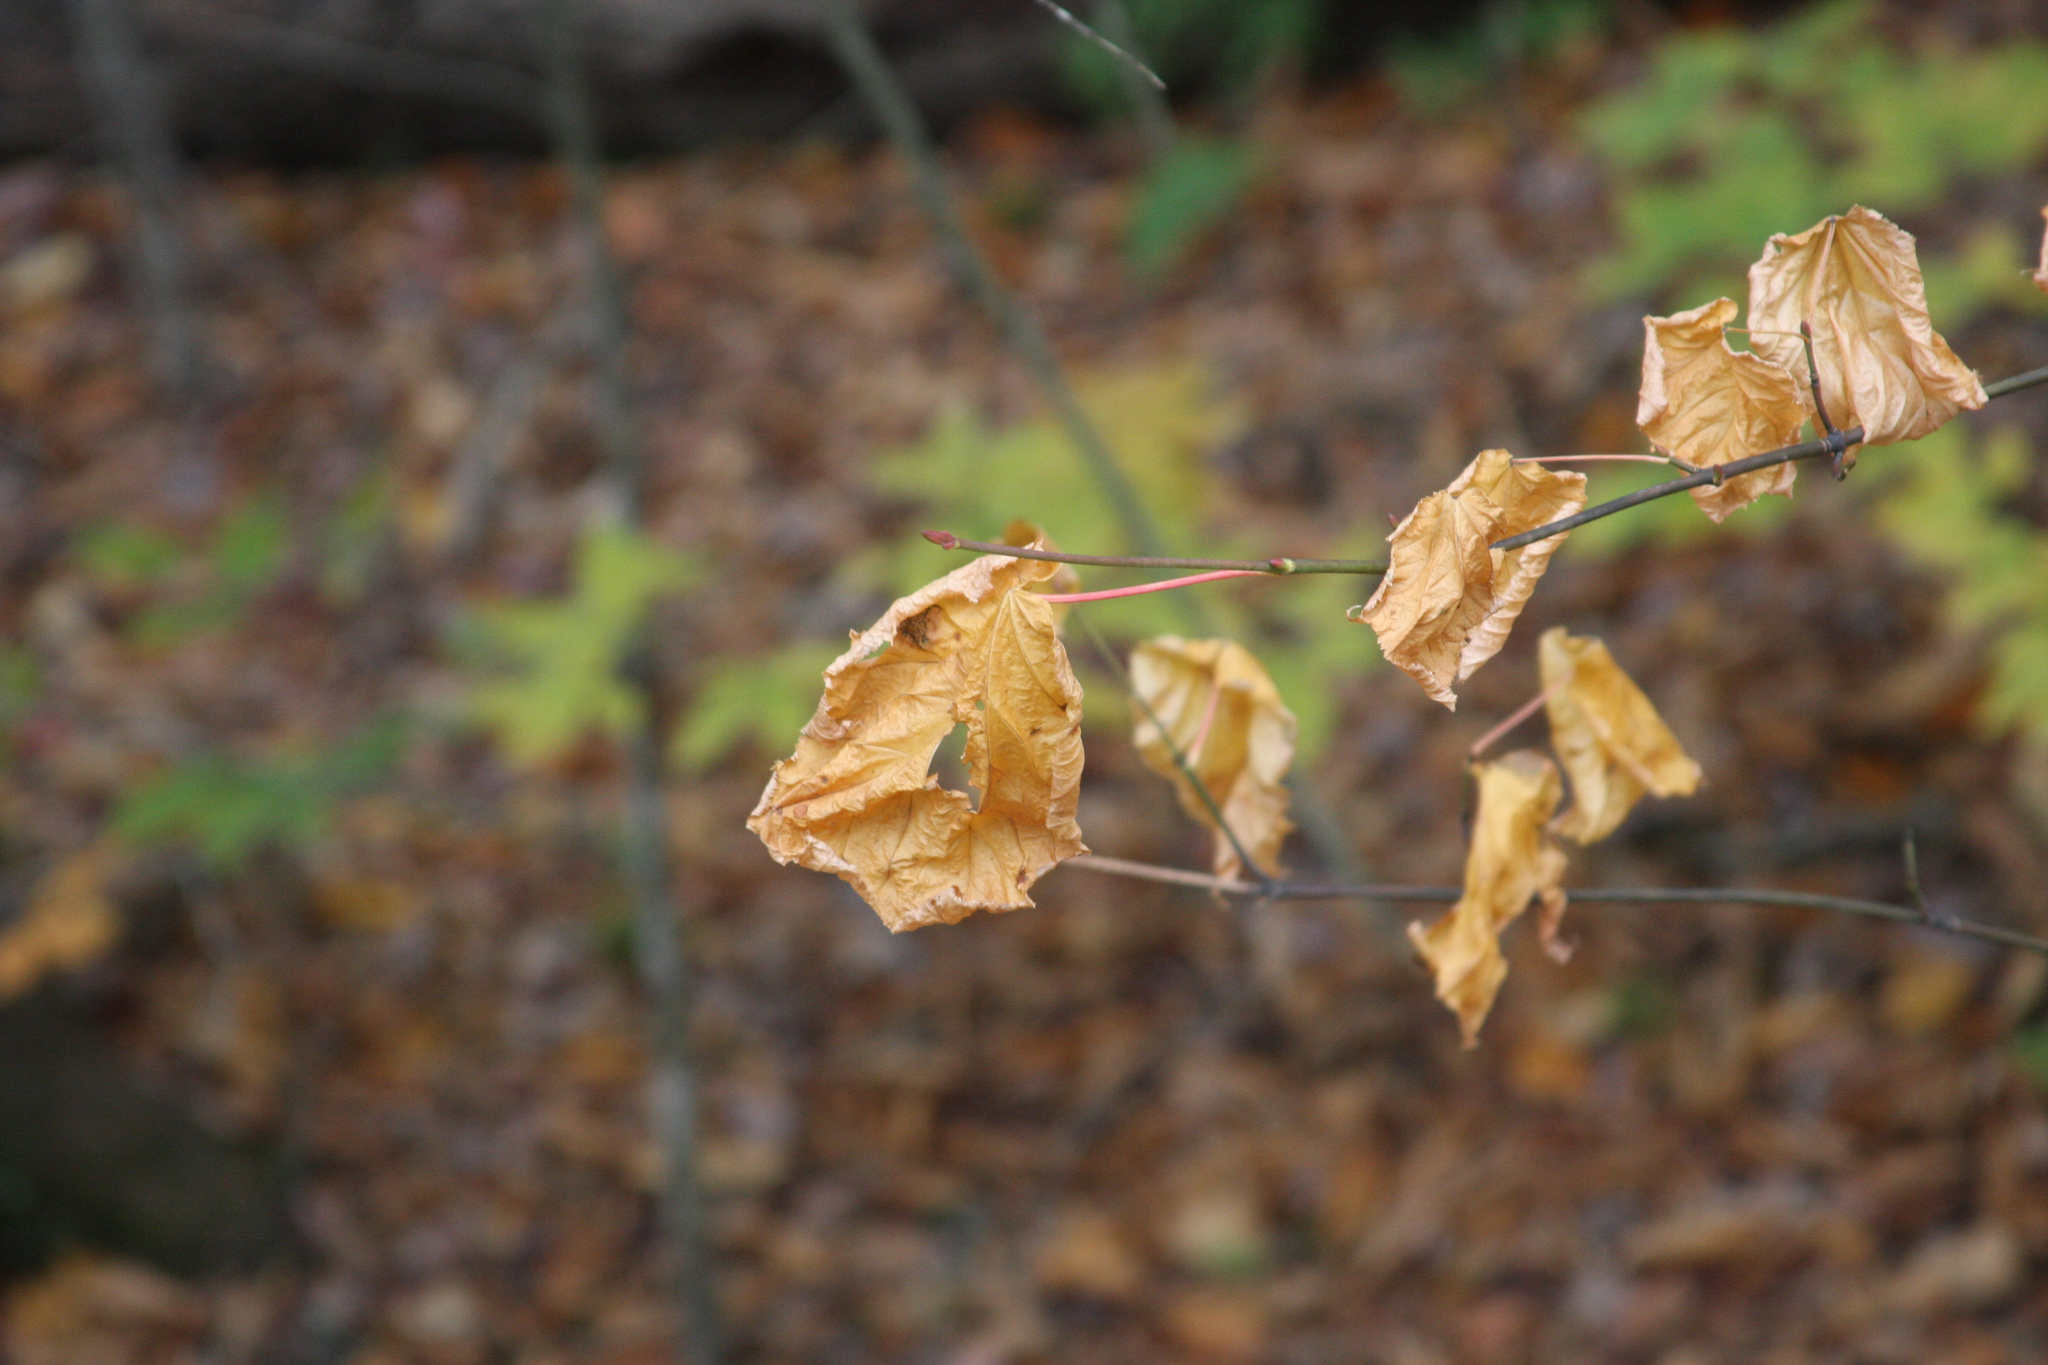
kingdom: Plantae
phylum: Tracheophyta
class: Magnoliopsida
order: Sapindales
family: Sapindaceae
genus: Acer
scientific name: Acer pensylvanicum
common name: Moosewood
